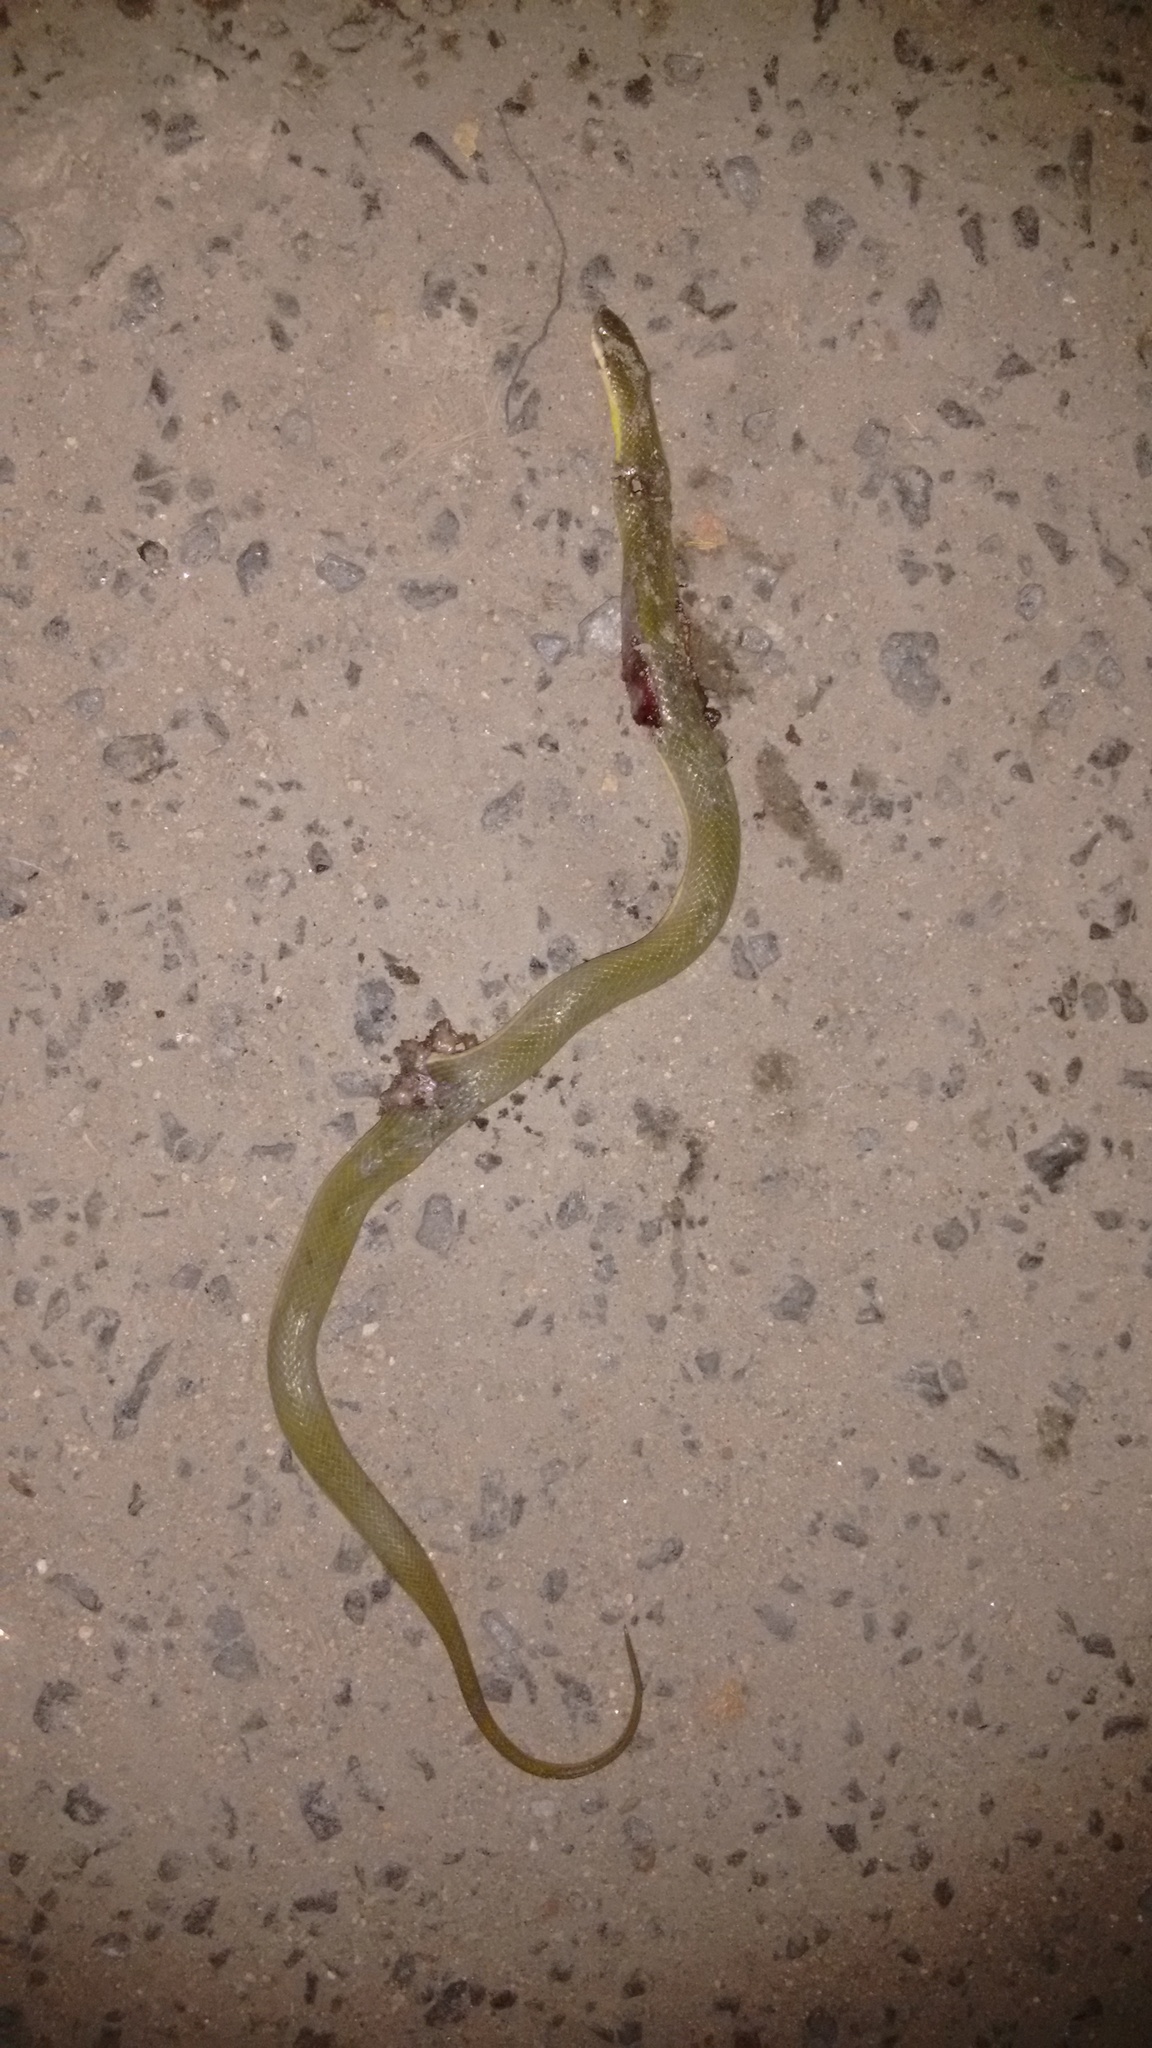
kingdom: Animalia
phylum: Chordata
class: Squamata
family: Colubridae
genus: Atretium
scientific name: Atretium schistosum
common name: Olive keelback wart snake
